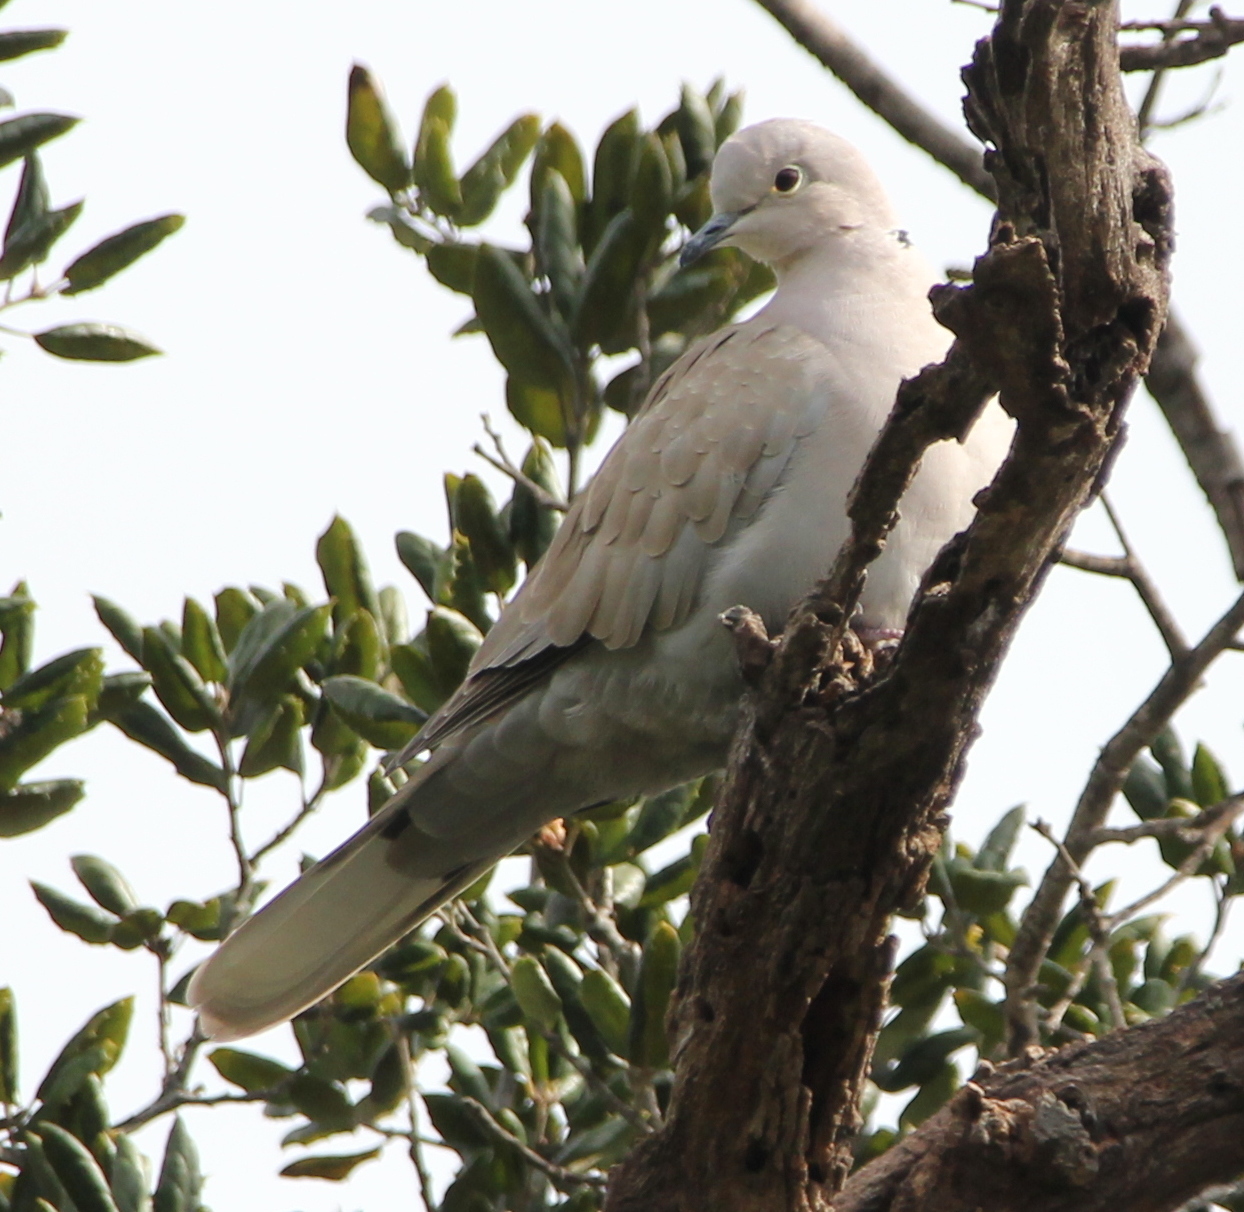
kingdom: Animalia
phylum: Chordata
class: Aves
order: Columbiformes
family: Columbidae
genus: Streptopelia
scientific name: Streptopelia decaocto
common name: Eurasian collared dove
